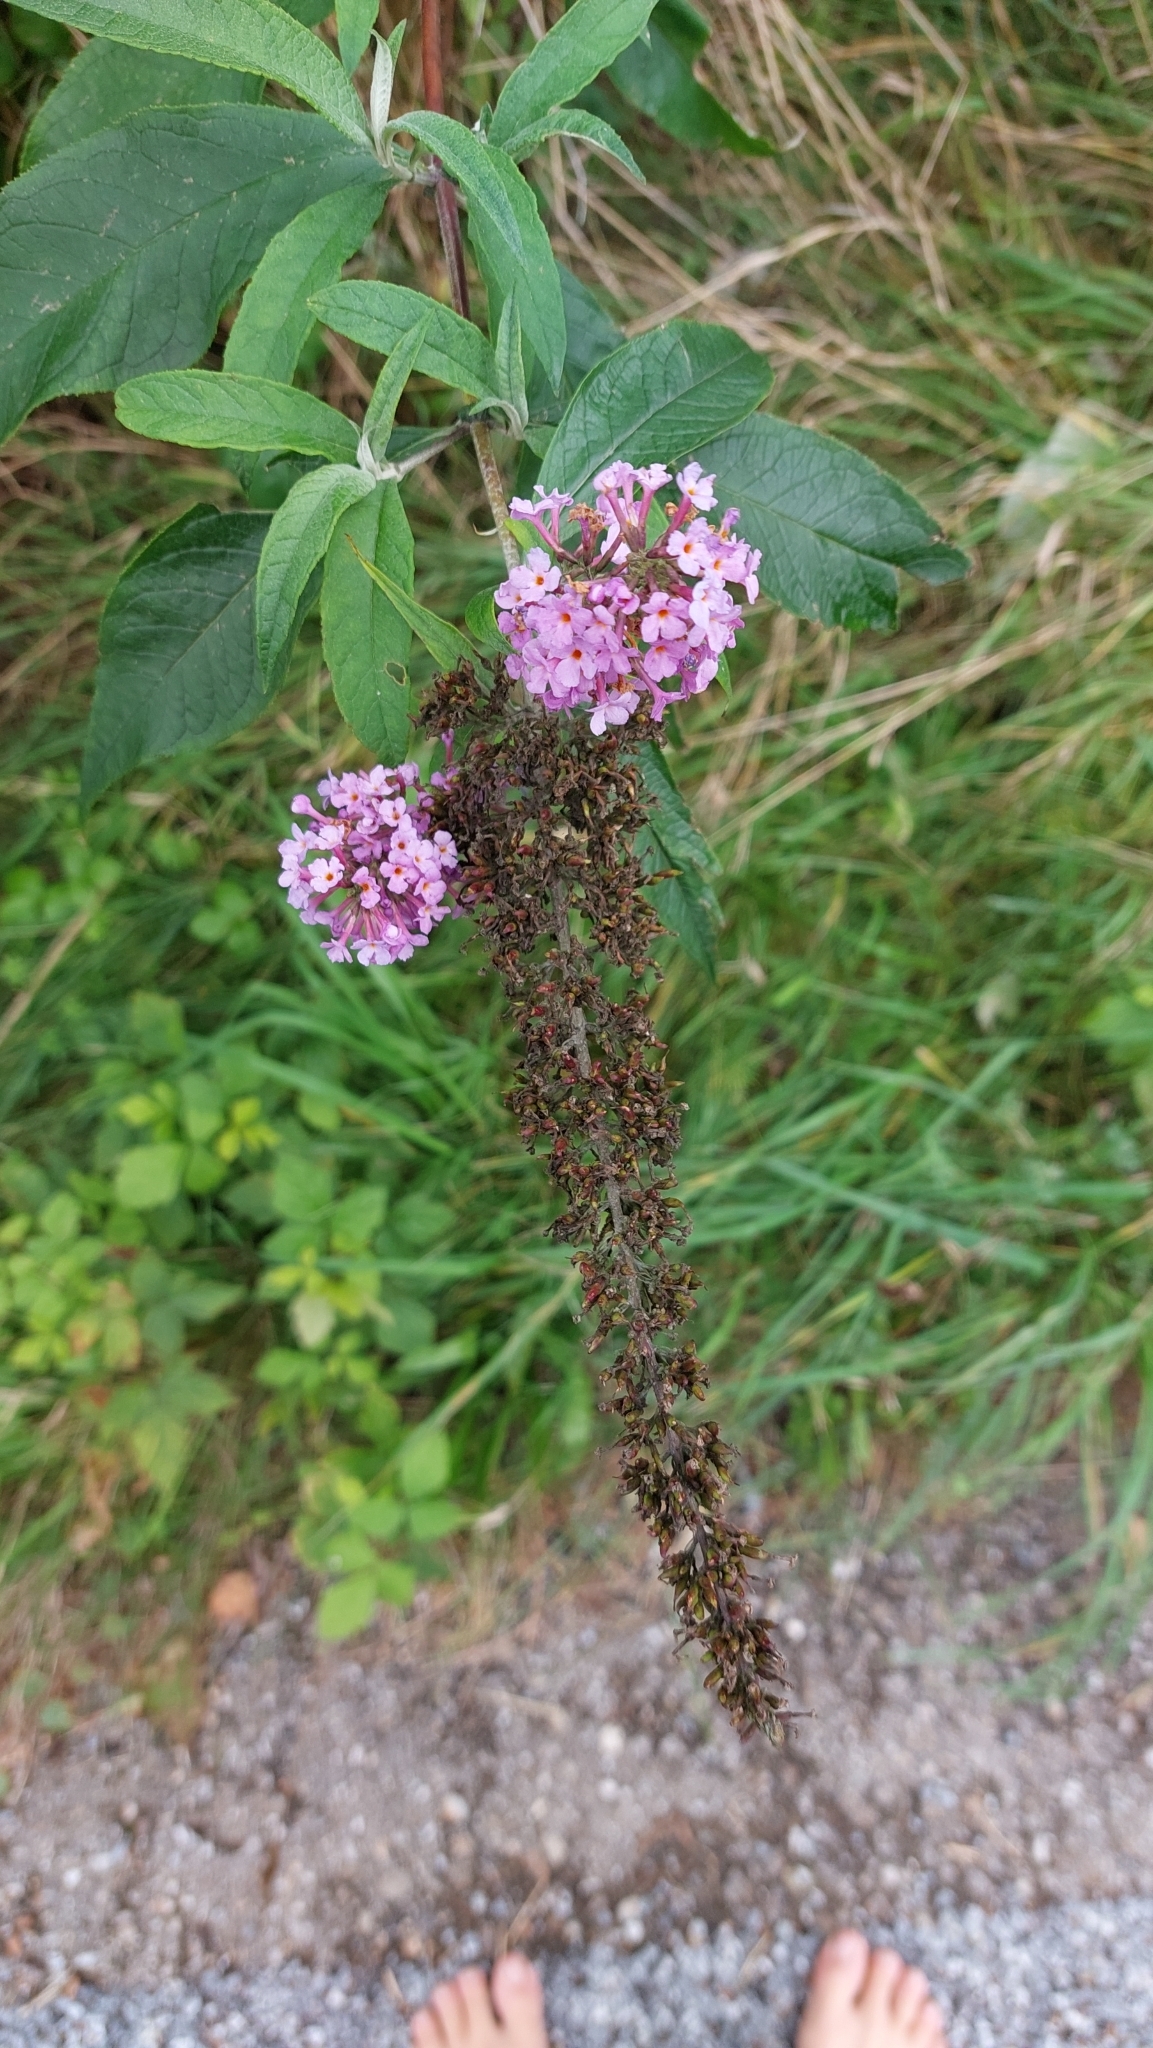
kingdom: Plantae
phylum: Tracheophyta
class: Magnoliopsida
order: Lamiales
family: Scrophulariaceae
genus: Buddleja
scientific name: Buddleja davidii
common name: Butterfly-bush
